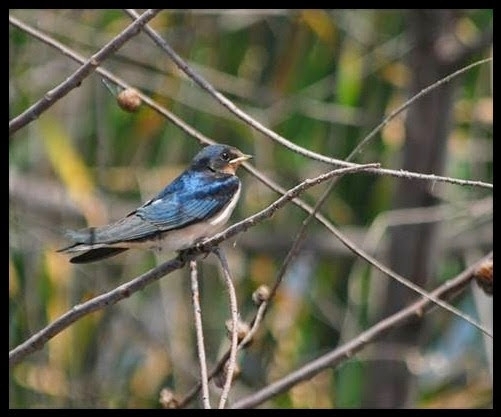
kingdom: Animalia
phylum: Chordata
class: Aves
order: Passeriformes
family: Hirundinidae
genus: Hirundo
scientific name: Hirundo rustica
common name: Barn swallow
